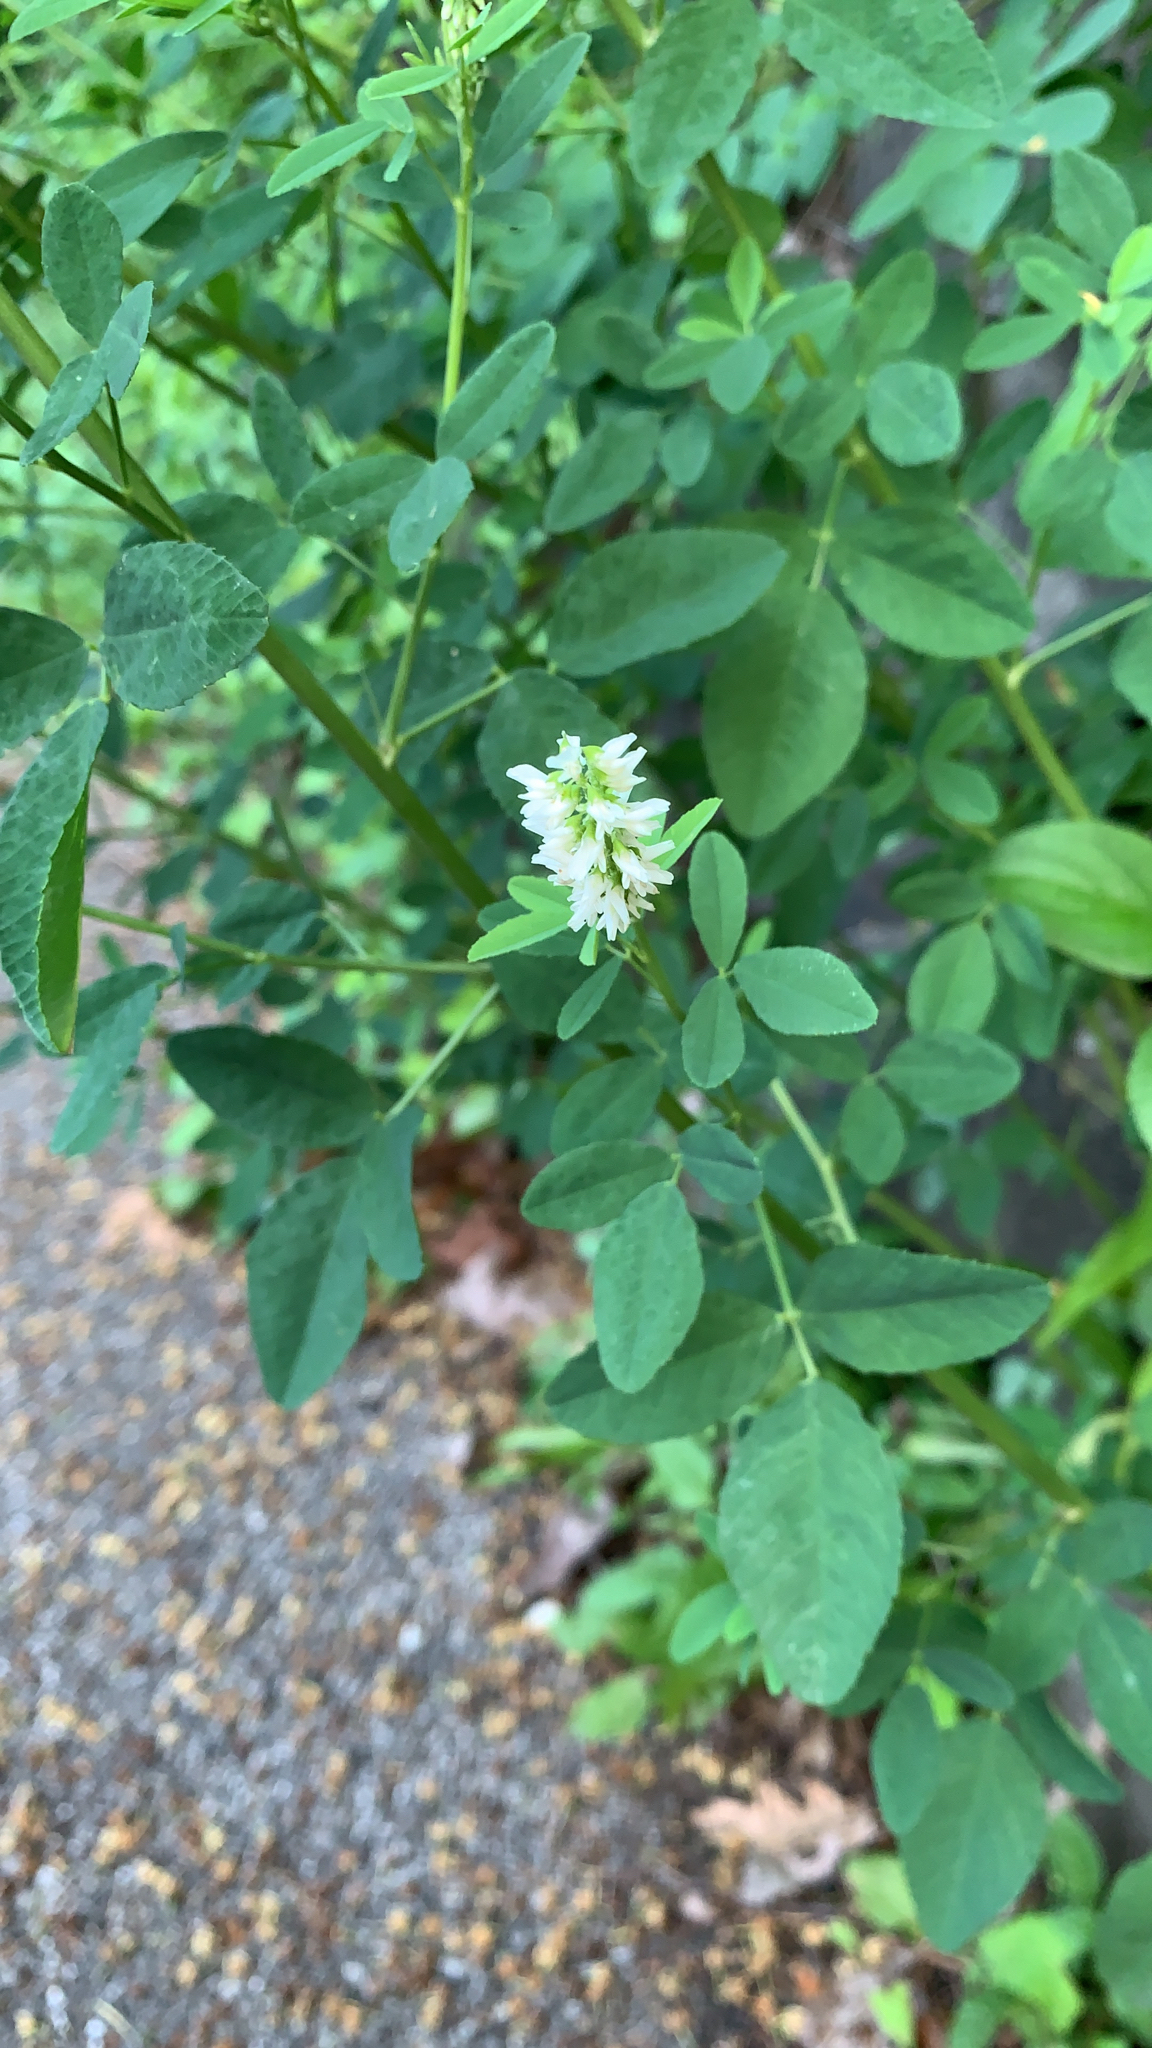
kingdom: Plantae
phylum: Tracheophyta
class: Magnoliopsida
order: Fabales
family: Fabaceae
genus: Melilotus
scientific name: Melilotus albus
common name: White melilot
